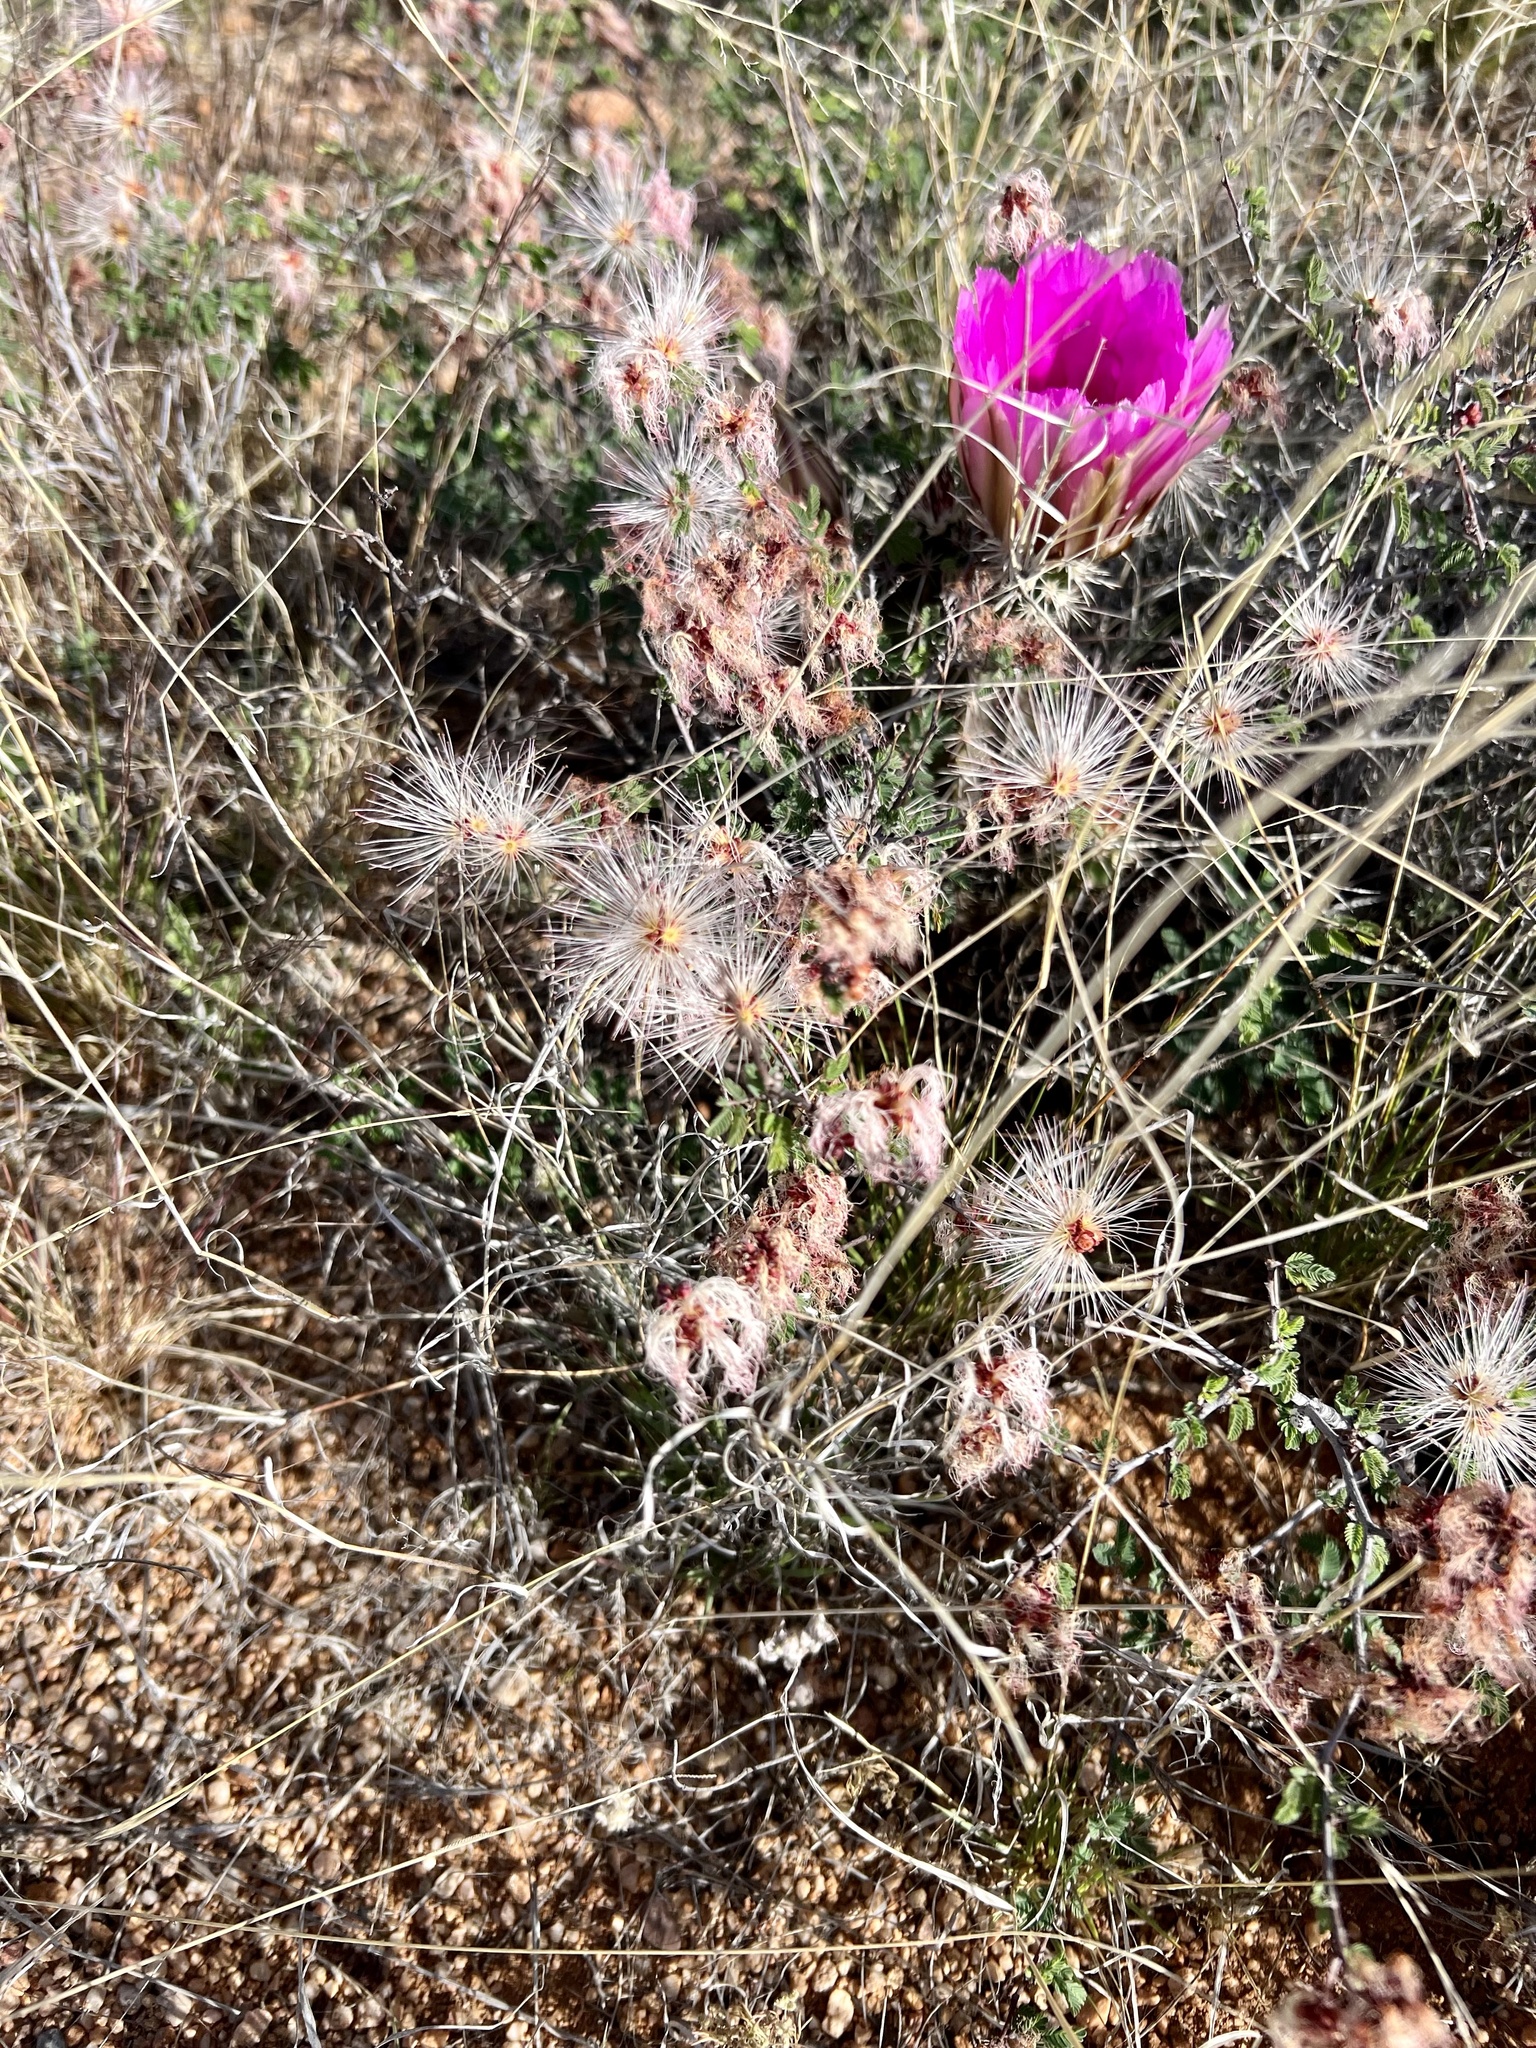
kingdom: Plantae
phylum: Tracheophyta
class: Magnoliopsida
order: Fabales
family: Fabaceae
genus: Calliandra
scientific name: Calliandra eriophylla
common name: Fairy-duster
